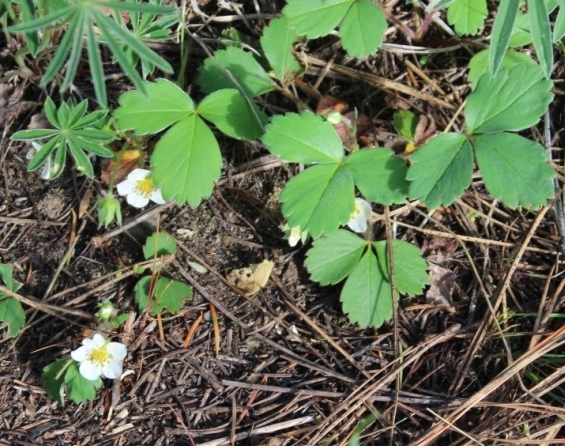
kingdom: Plantae
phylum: Tracheophyta
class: Magnoliopsida
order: Rosales
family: Rosaceae
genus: Fragaria
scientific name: Fragaria virginiana
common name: Thickleaved wild strawberry
